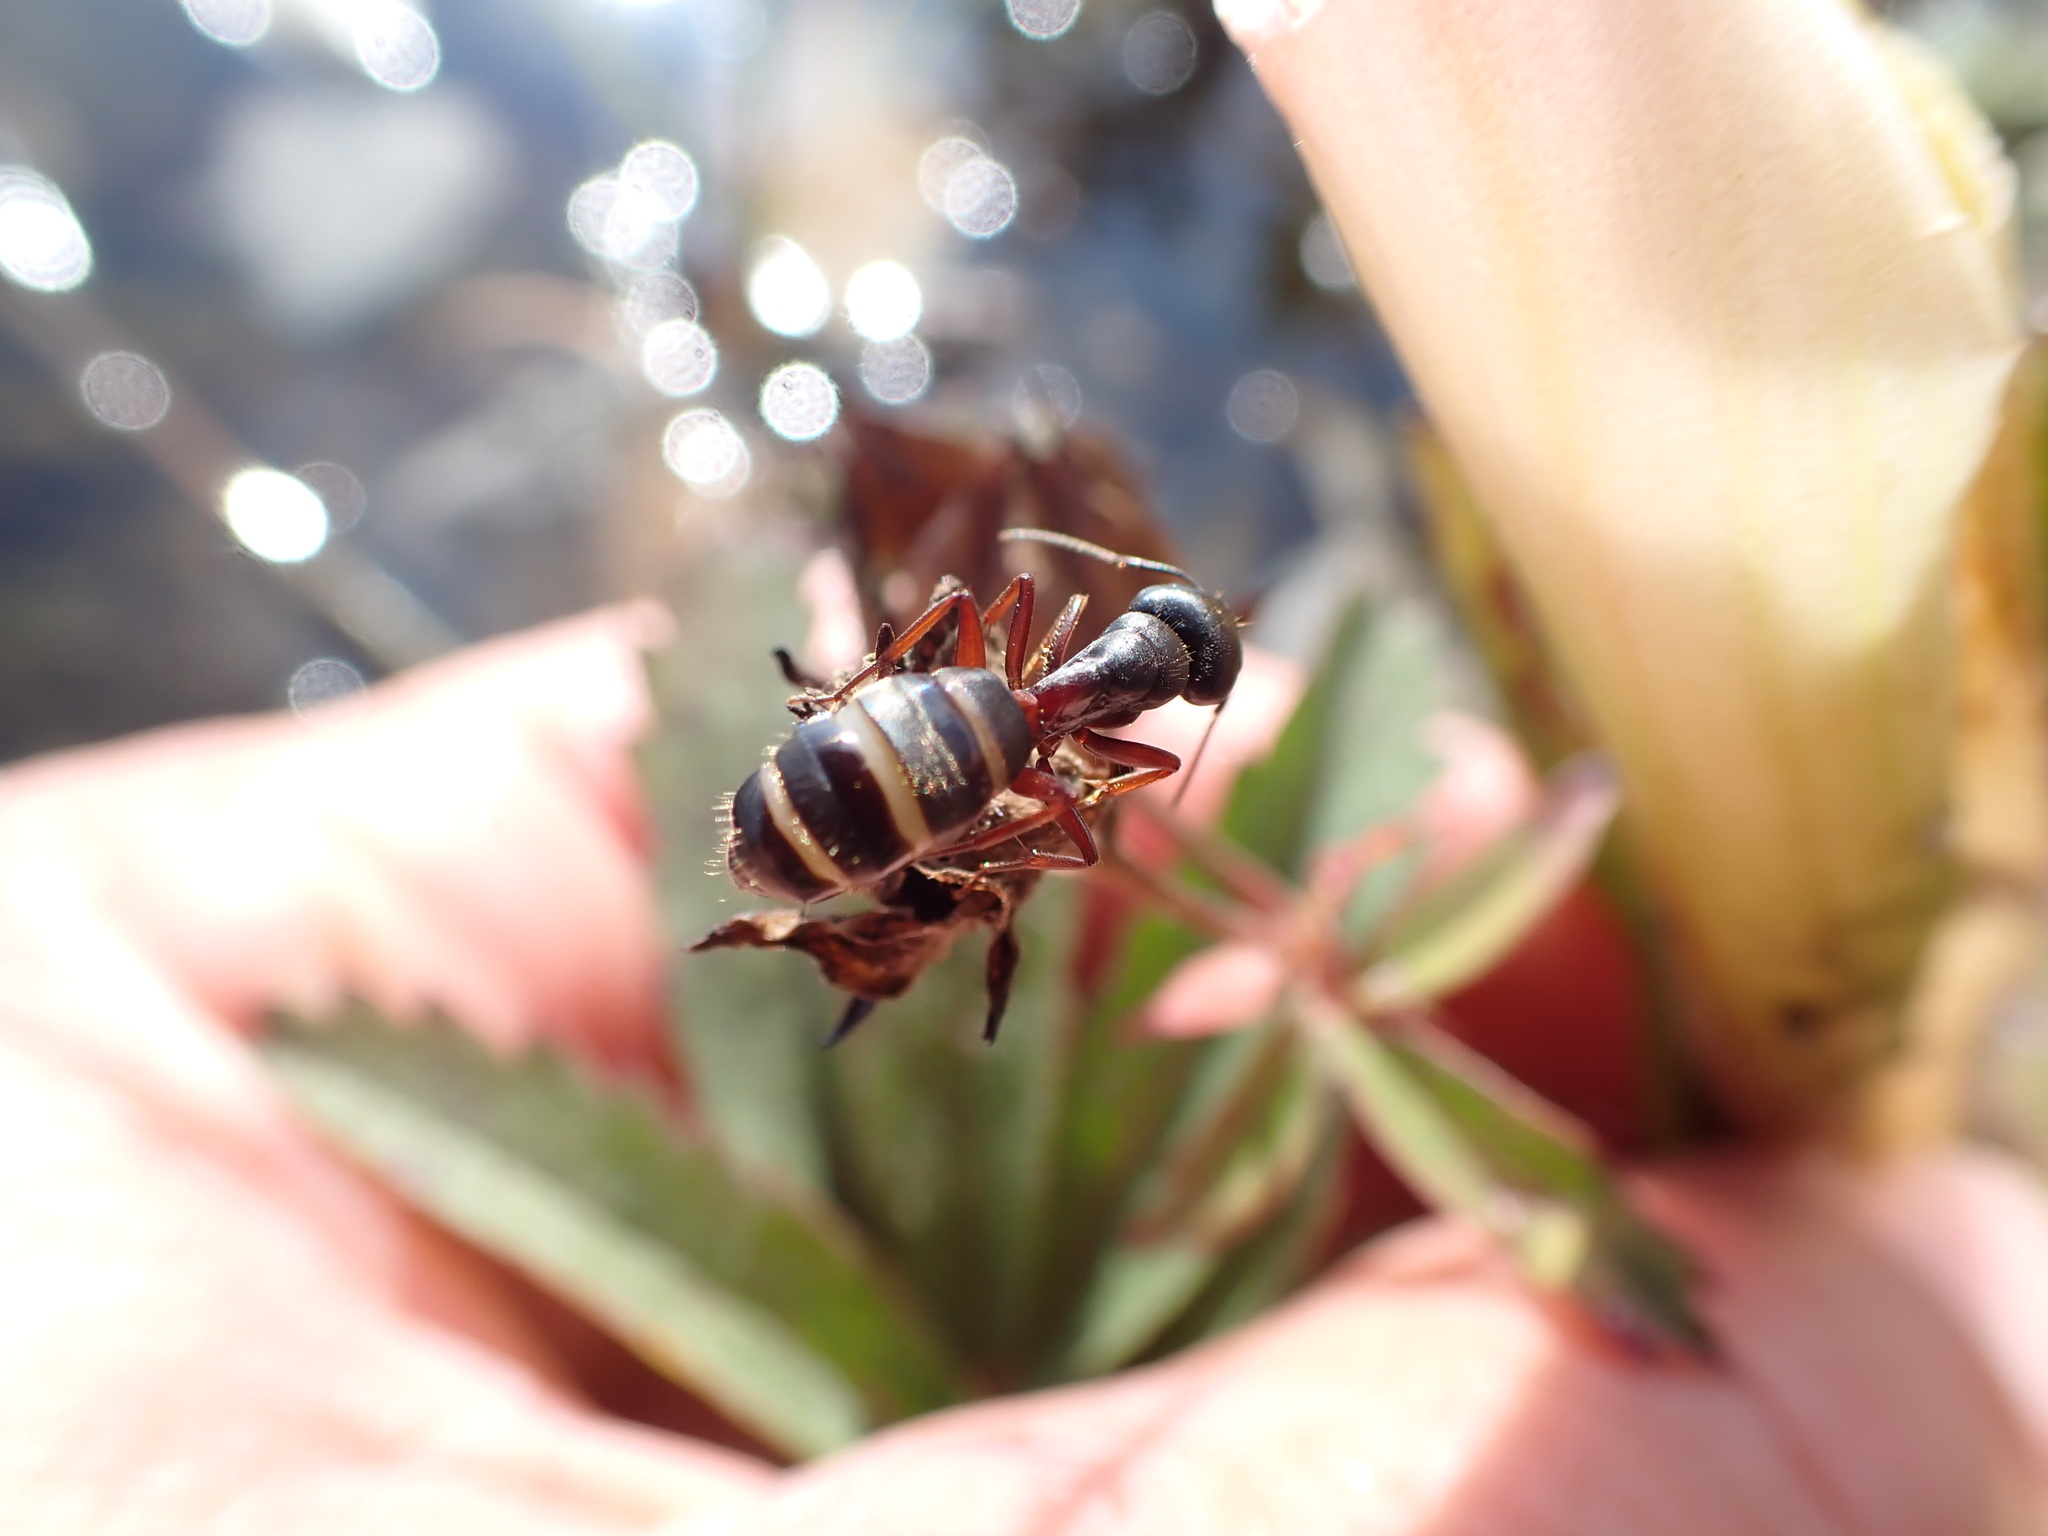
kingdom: Animalia
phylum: Arthropoda
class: Insecta
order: Hymenoptera
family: Formicidae
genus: Camponotus
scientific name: Camponotus herculeanus
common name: Hercules ant
